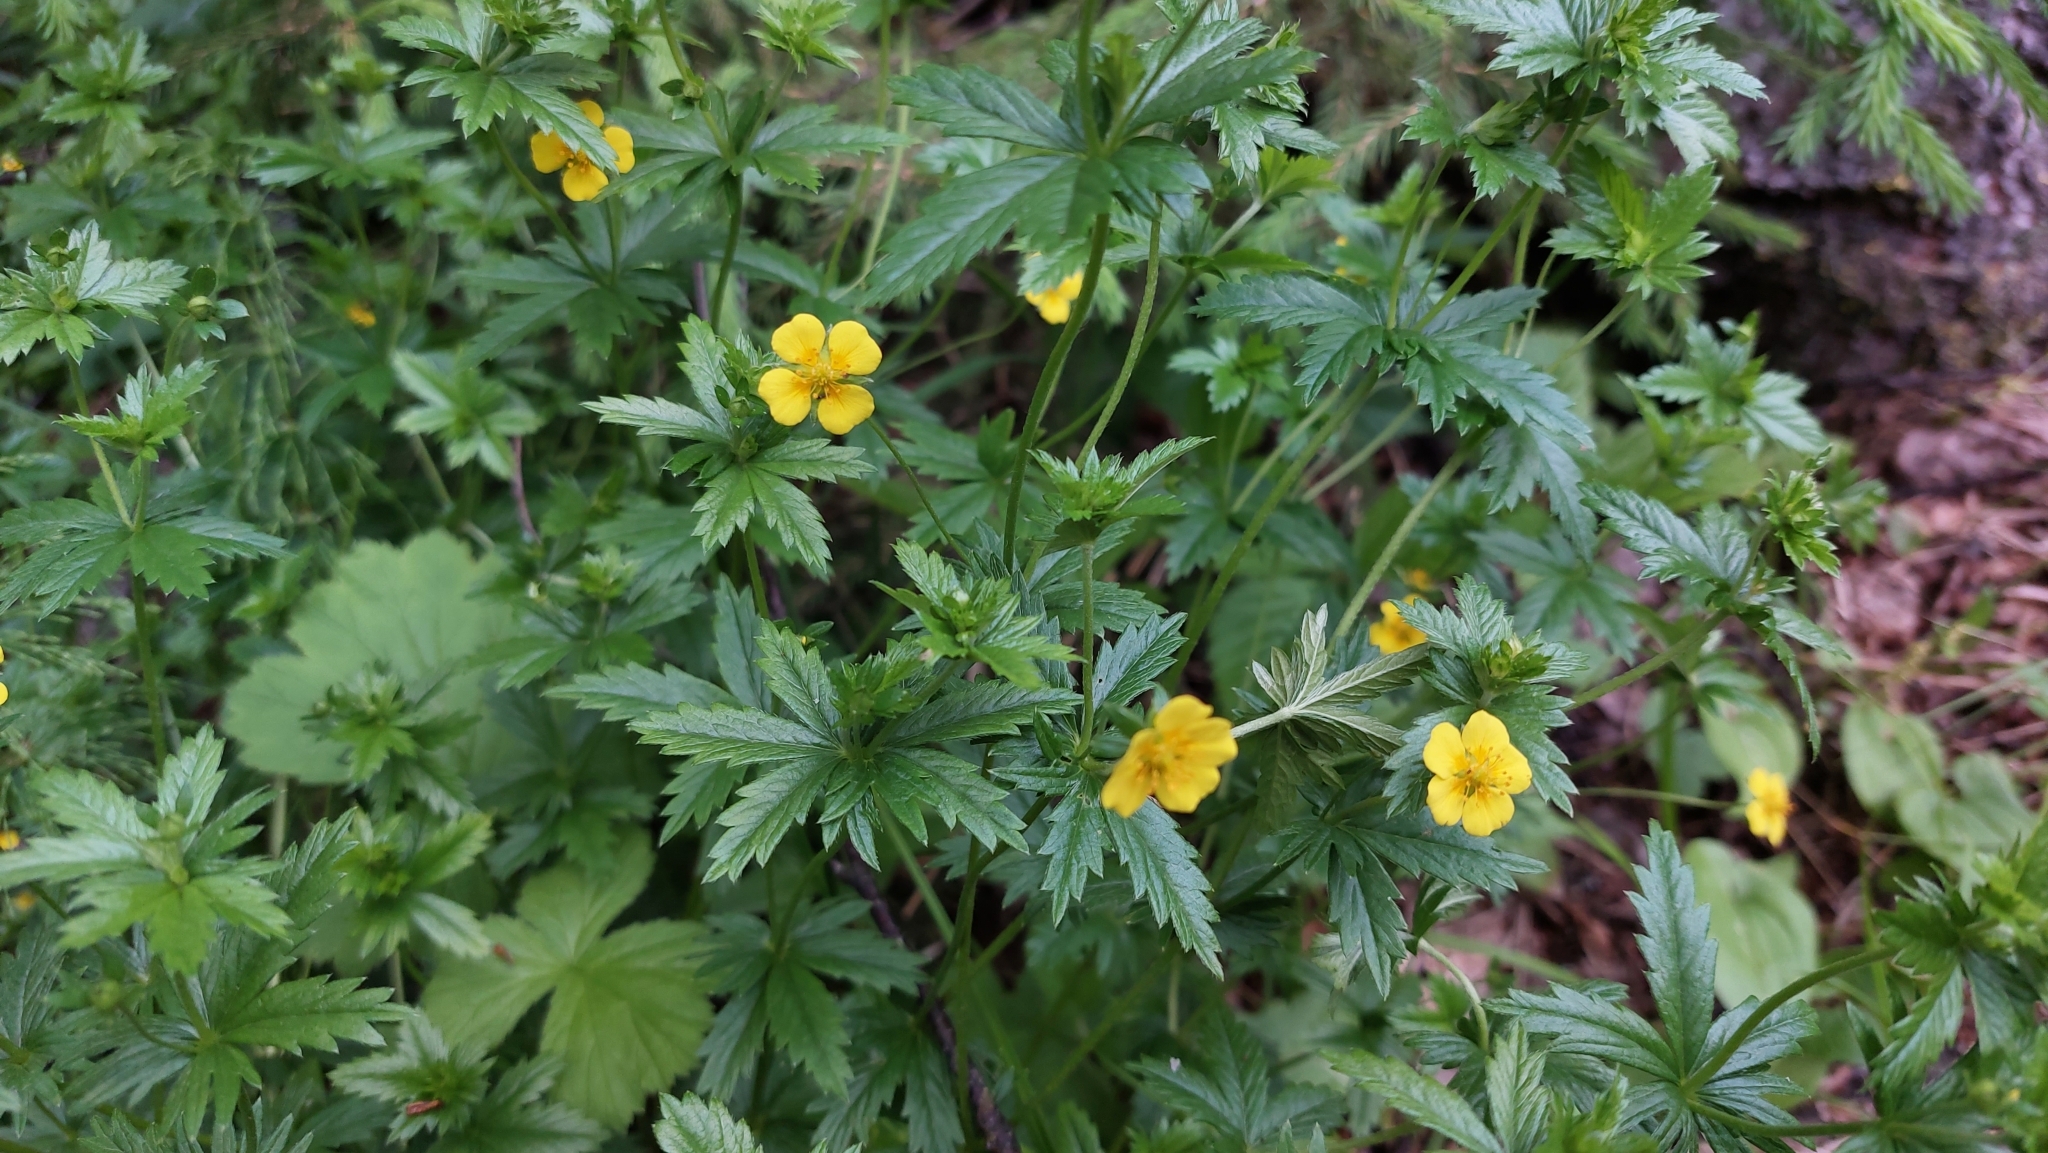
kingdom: Plantae
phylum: Tracheophyta
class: Magnoliopsida
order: Rosales
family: Rosaceae
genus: Potentilla
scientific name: Potentilla erecta
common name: Tormentil
